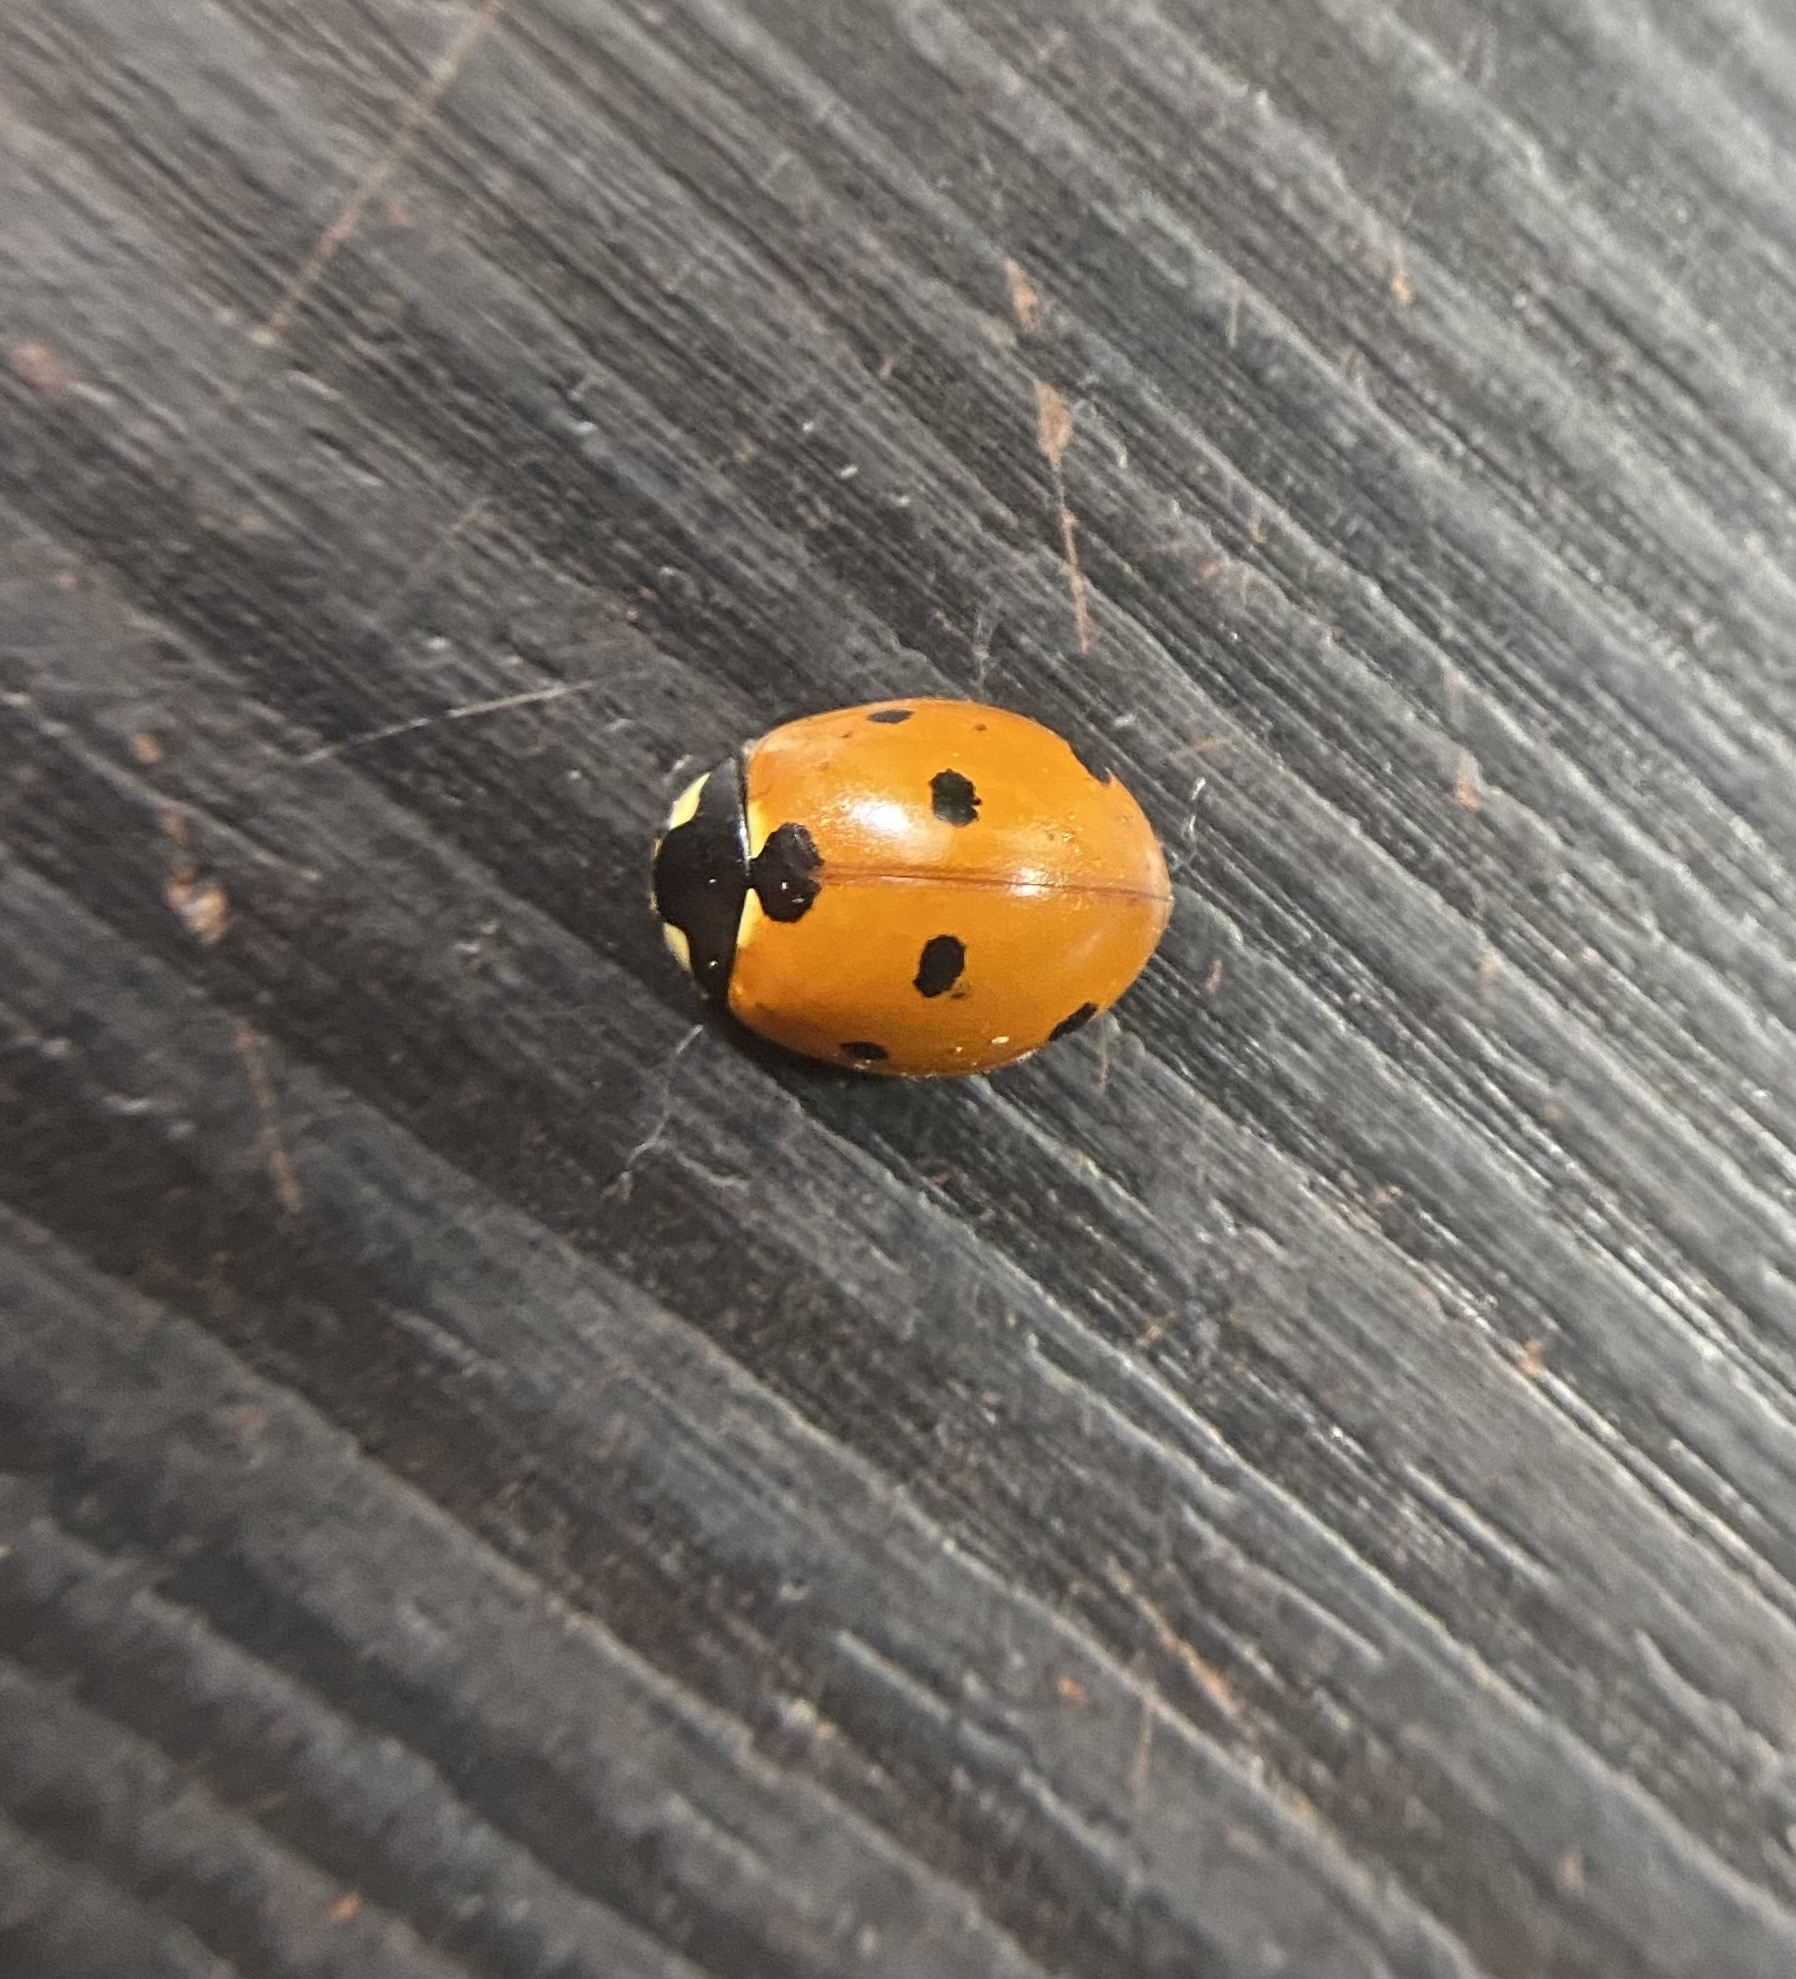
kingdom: Animalia
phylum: Arthropoda
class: Insecta
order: Coleoptera
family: Coccinellidae
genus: Coccinella
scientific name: Coccinella septempunctata
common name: Sevenspotted lady beetle
